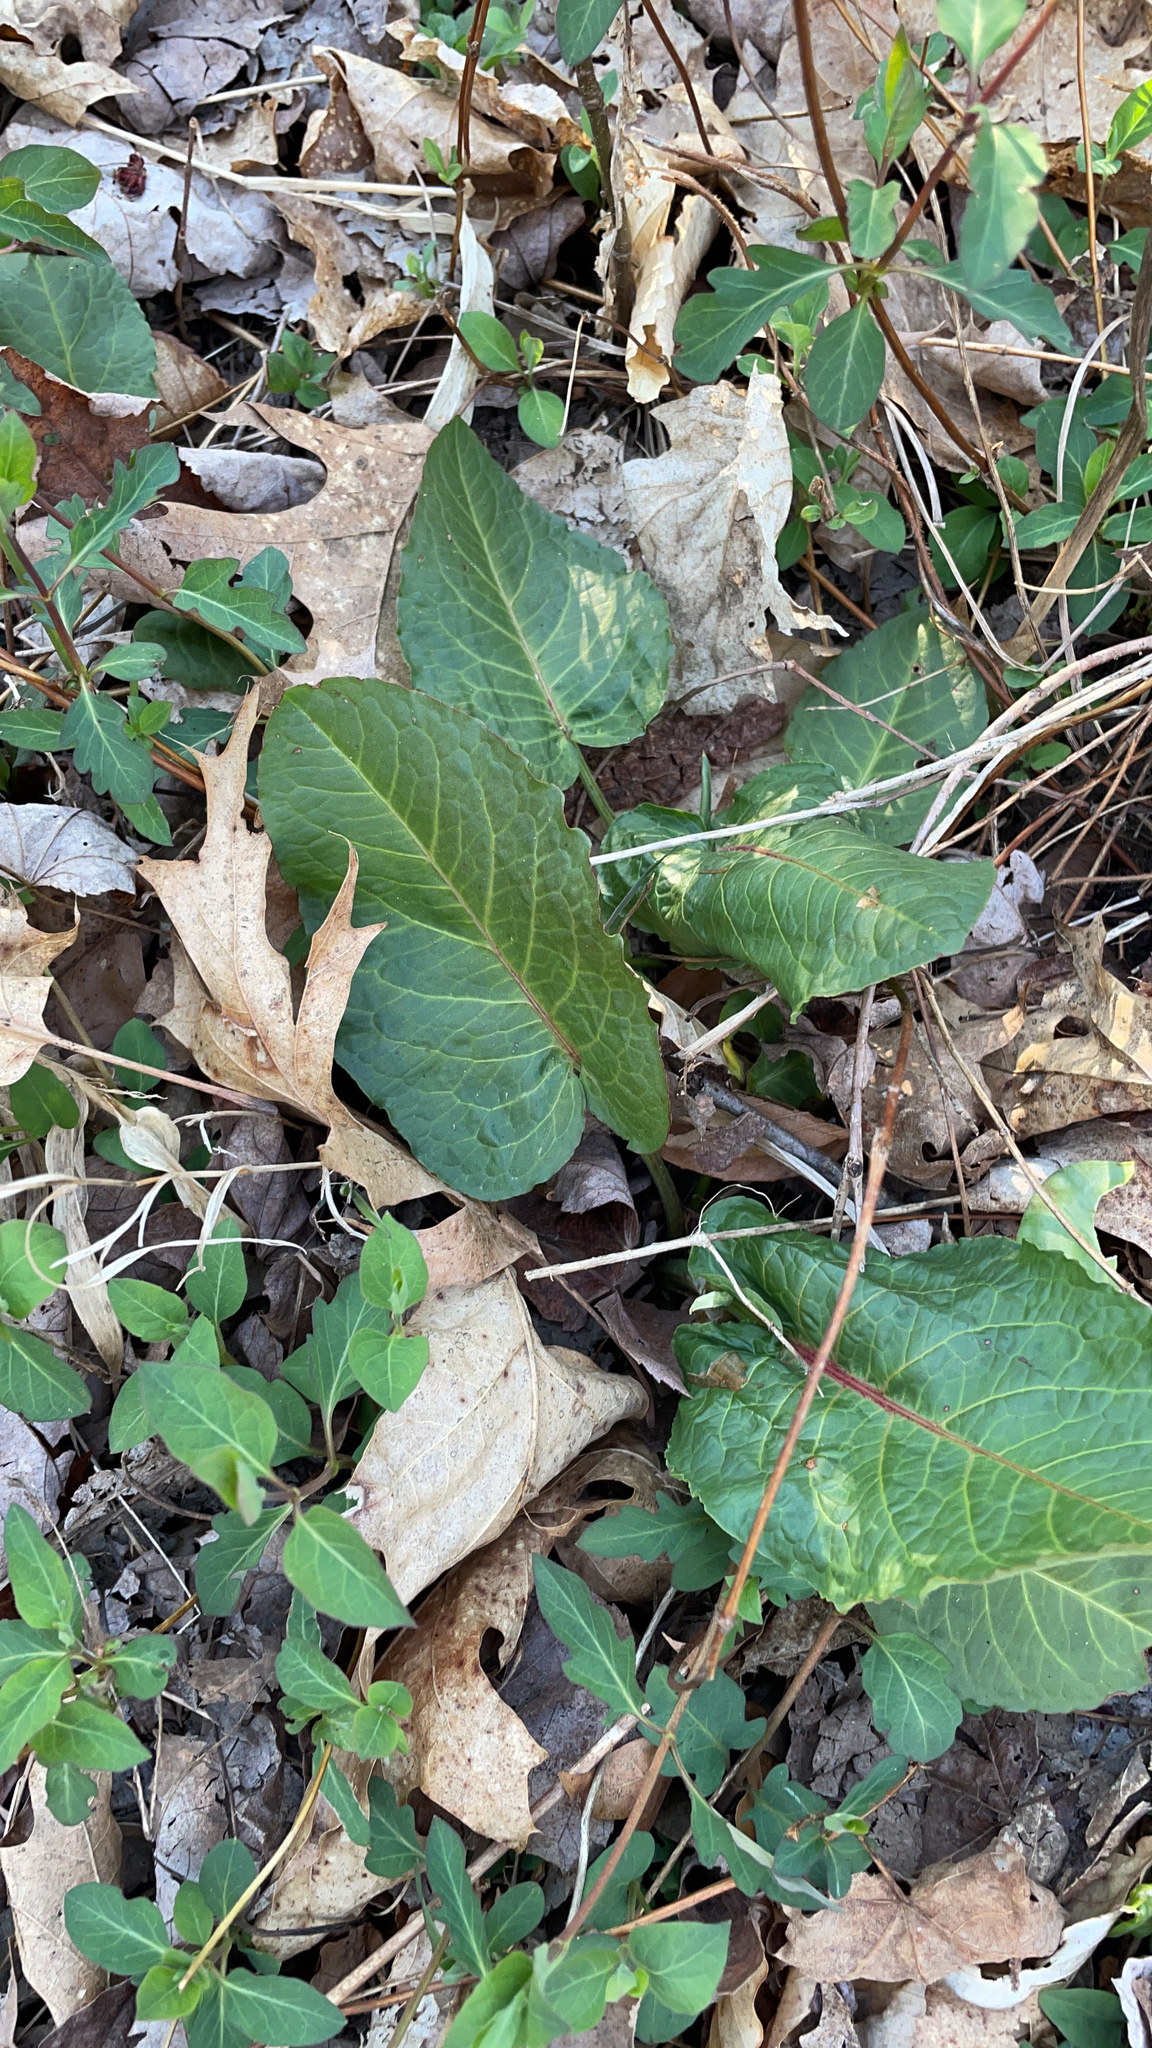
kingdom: Plantae
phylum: Tracheophyta
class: Magnoliopsida
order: Caryophyllales
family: Polygonaceae
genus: Rumex
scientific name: Rumex obtusifolius
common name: Bitter dock
